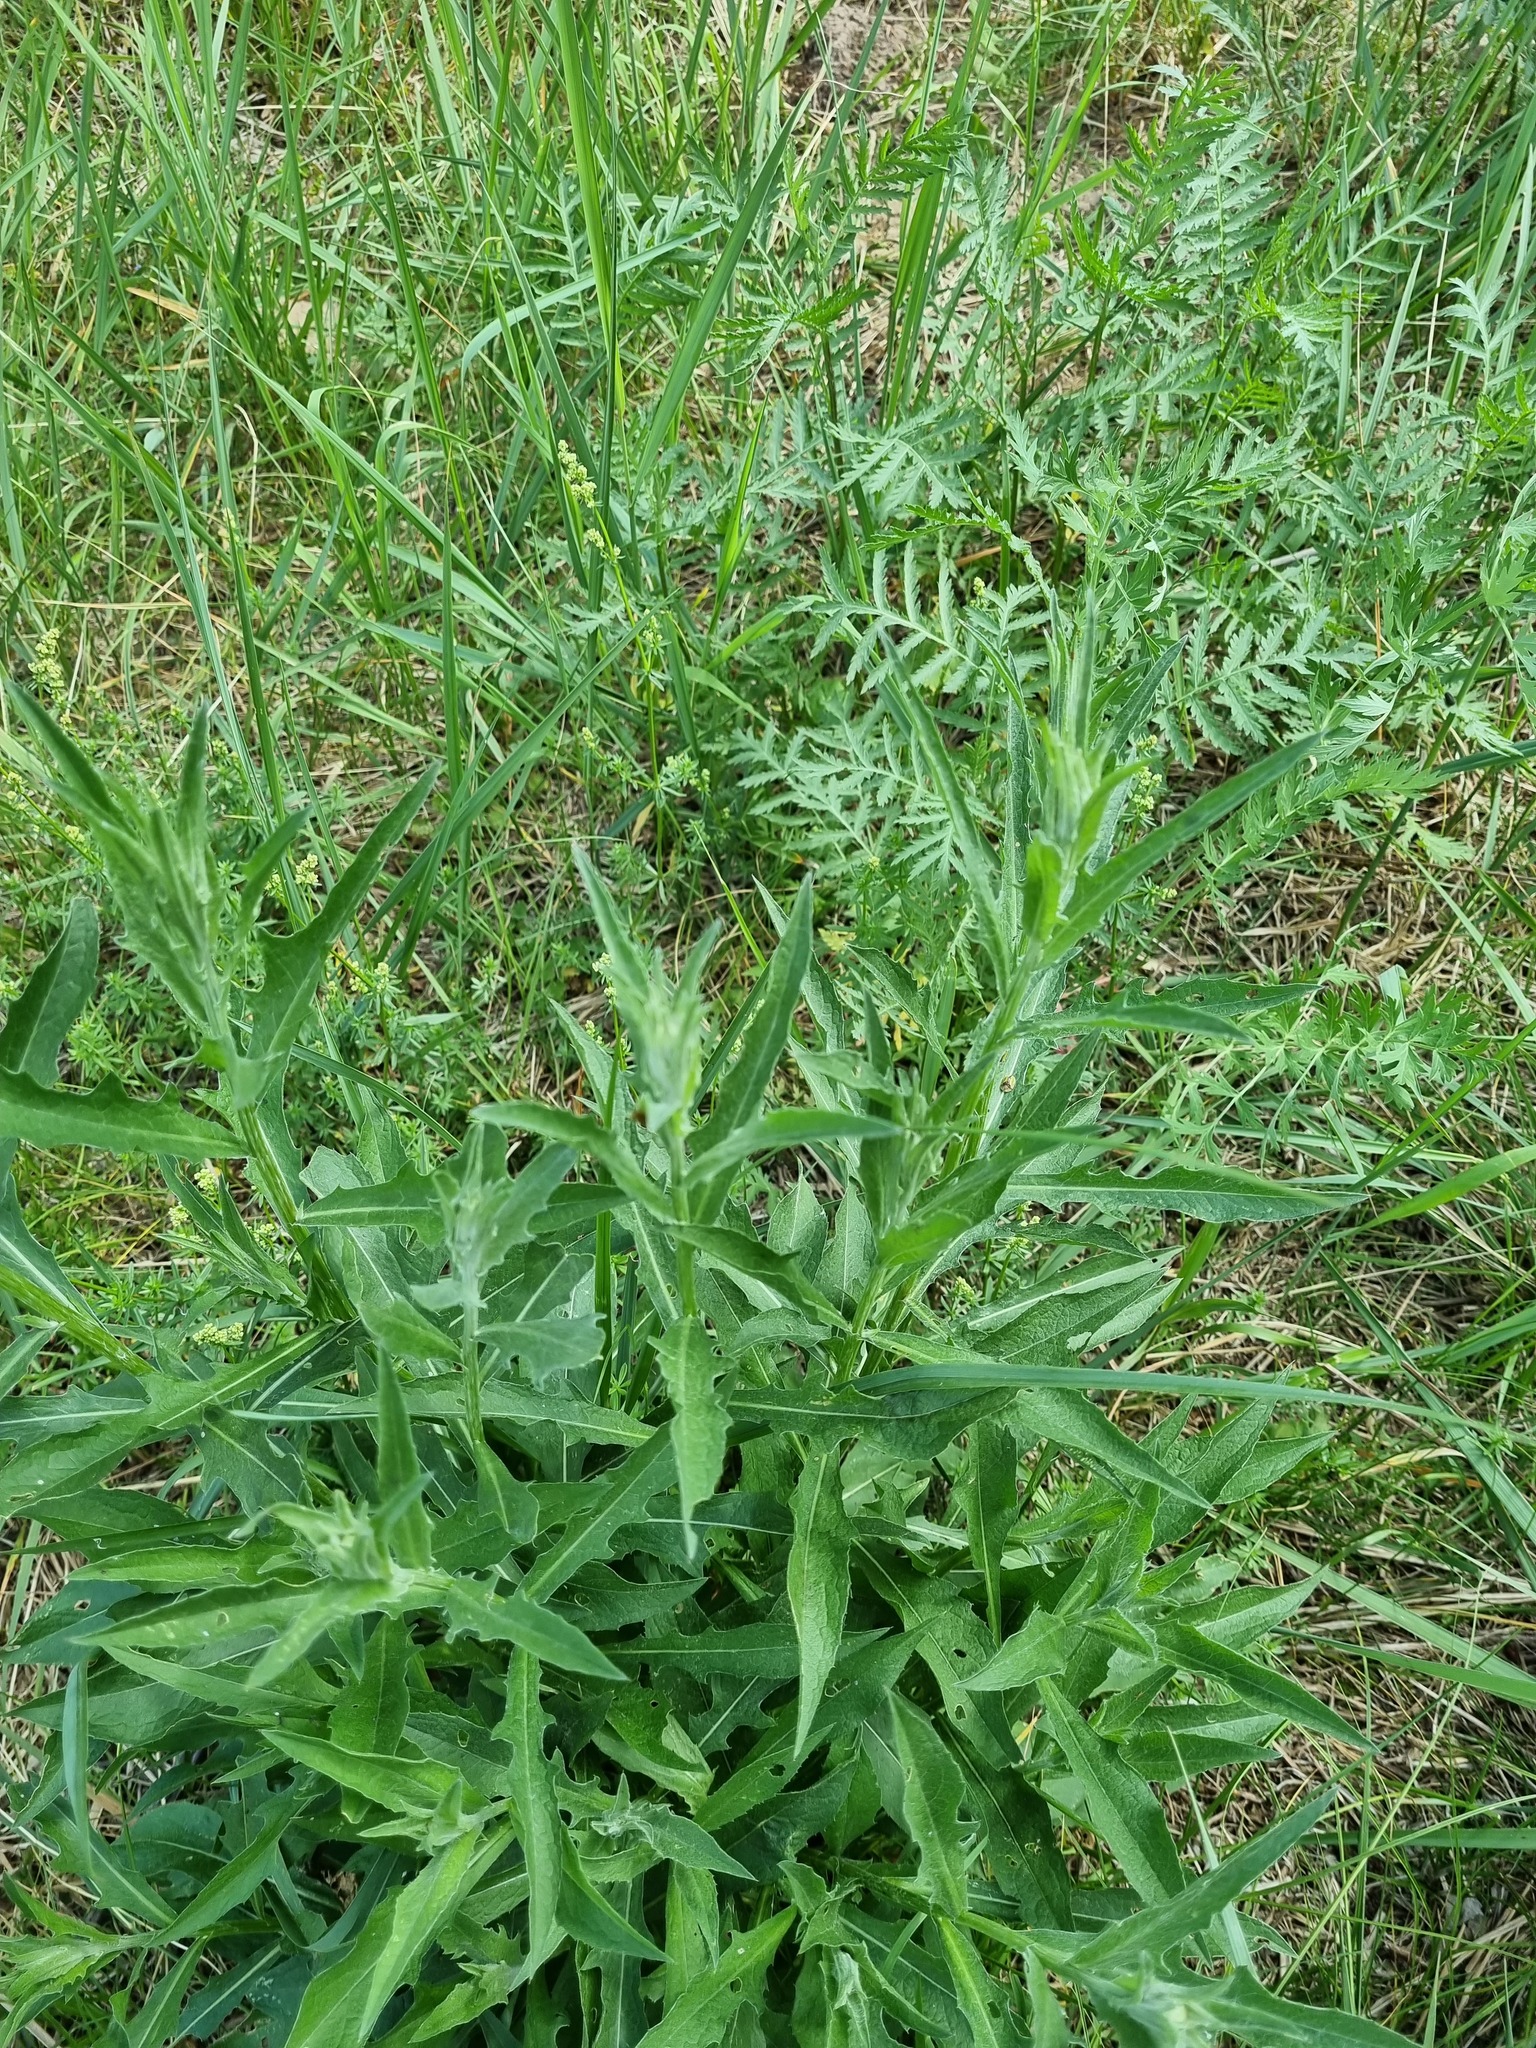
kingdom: Plantae
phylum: Tracheophyta
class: Magnoliopsida
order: Asterales
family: Asteraceae
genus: Centaurea
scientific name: Centaurea jacea
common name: Brown knapweed
